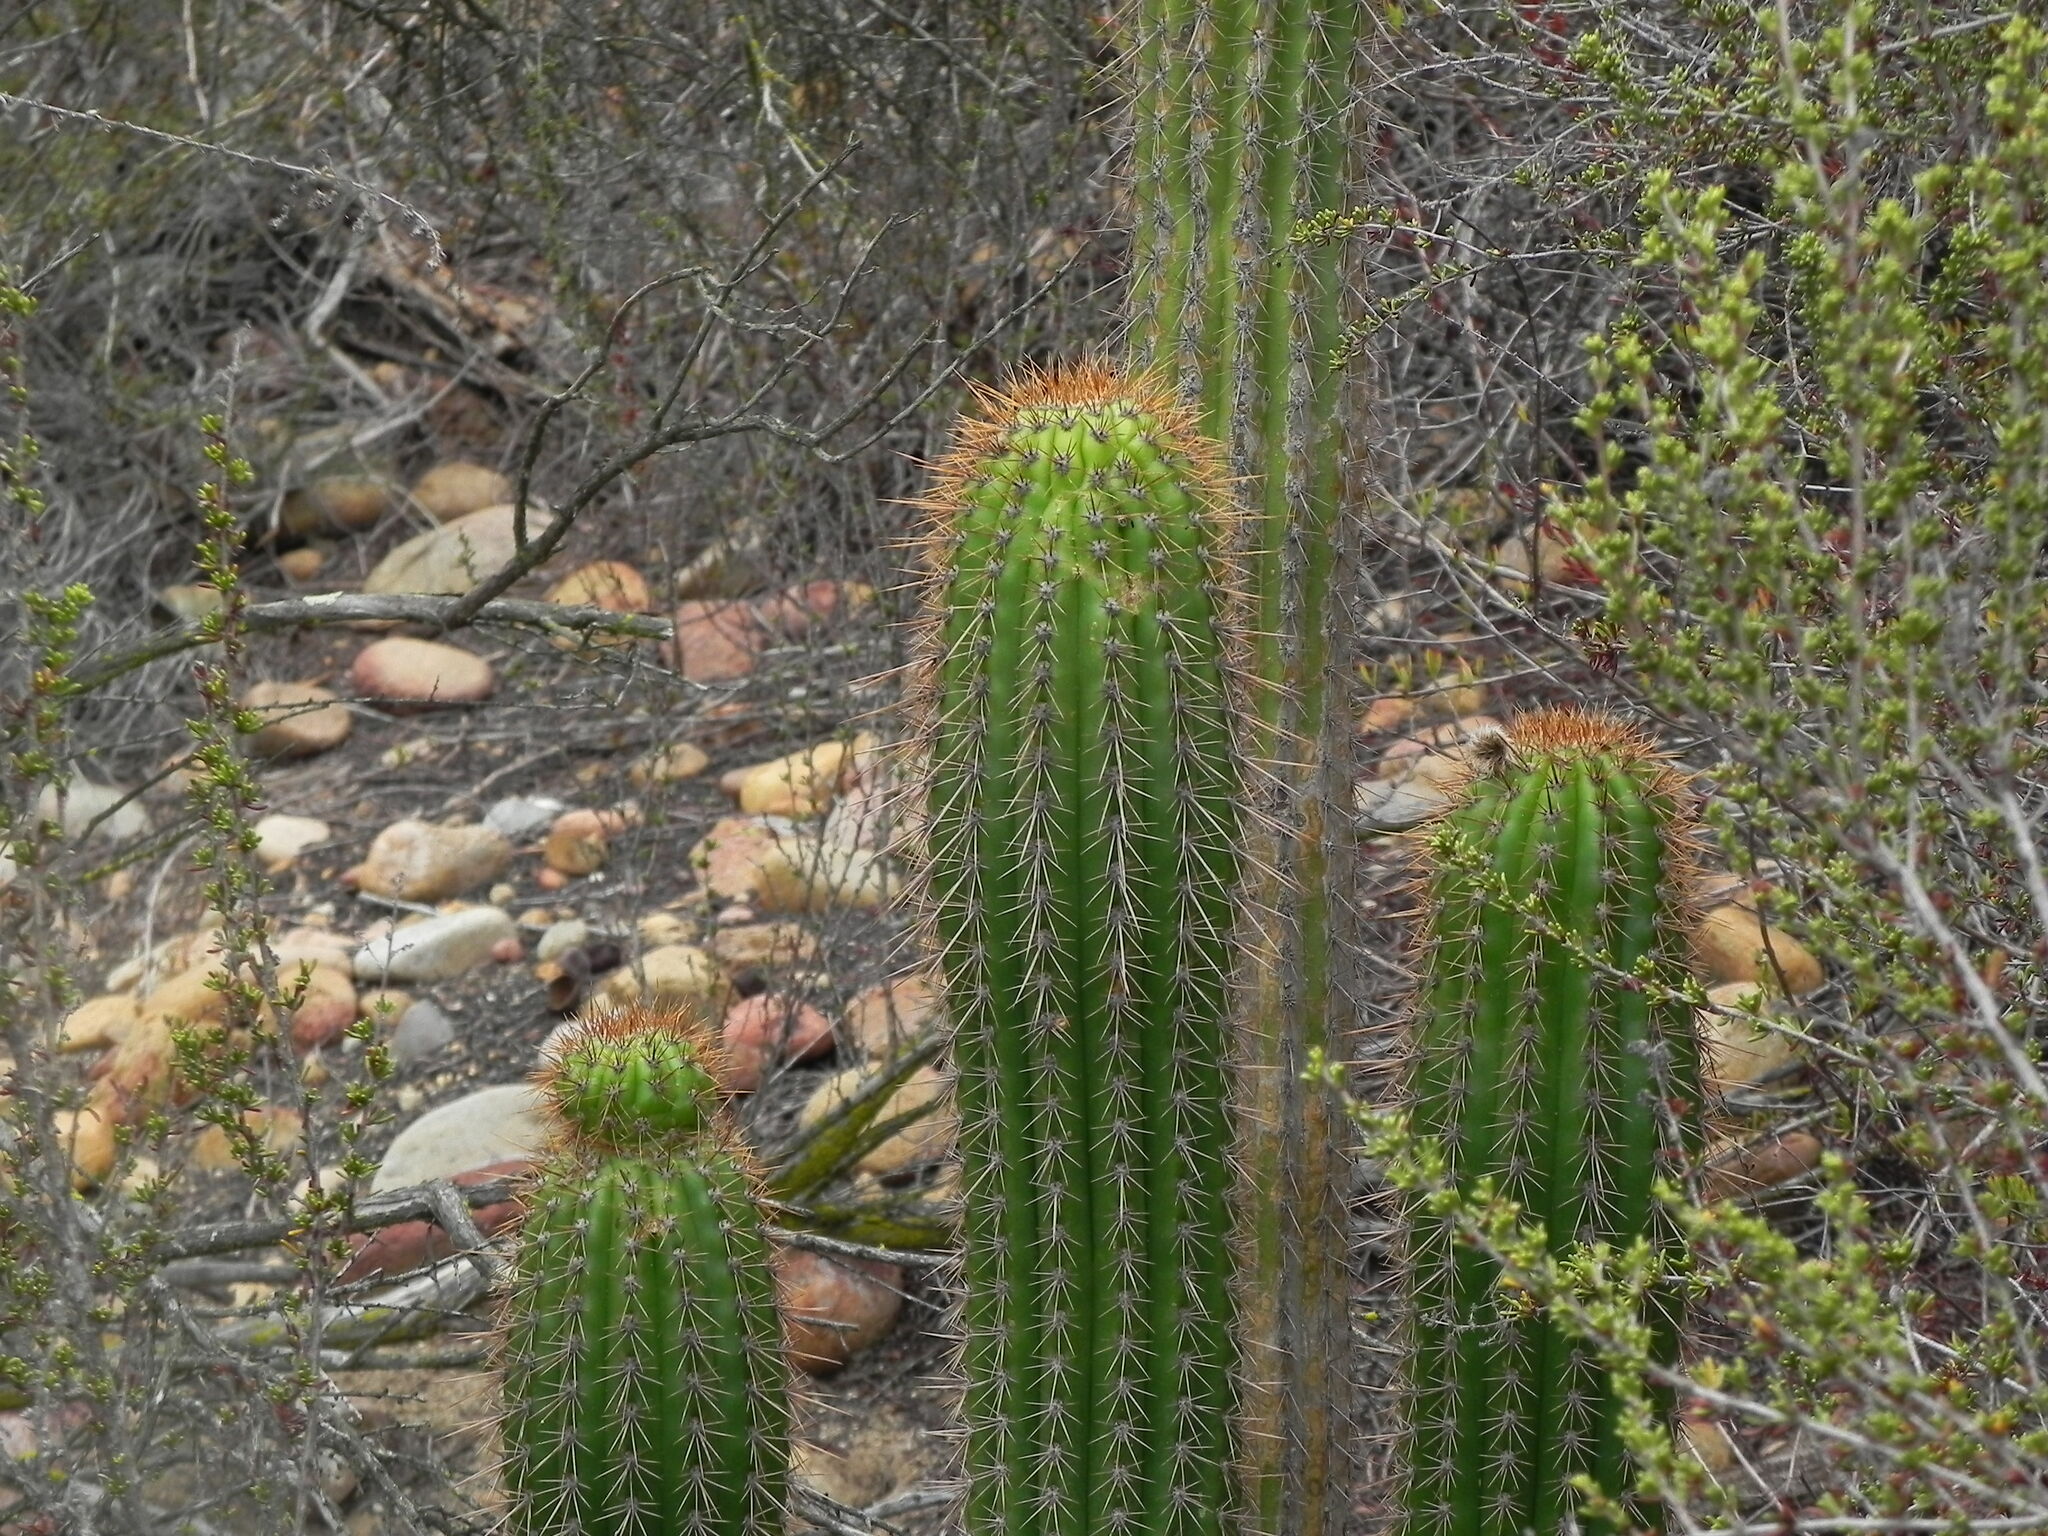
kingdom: Plantae
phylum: Tracheophyta
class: Magnoliopsida
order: Caryophyllales
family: Cactaceae
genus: Soehrensia
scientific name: Soehrensia spachiana
